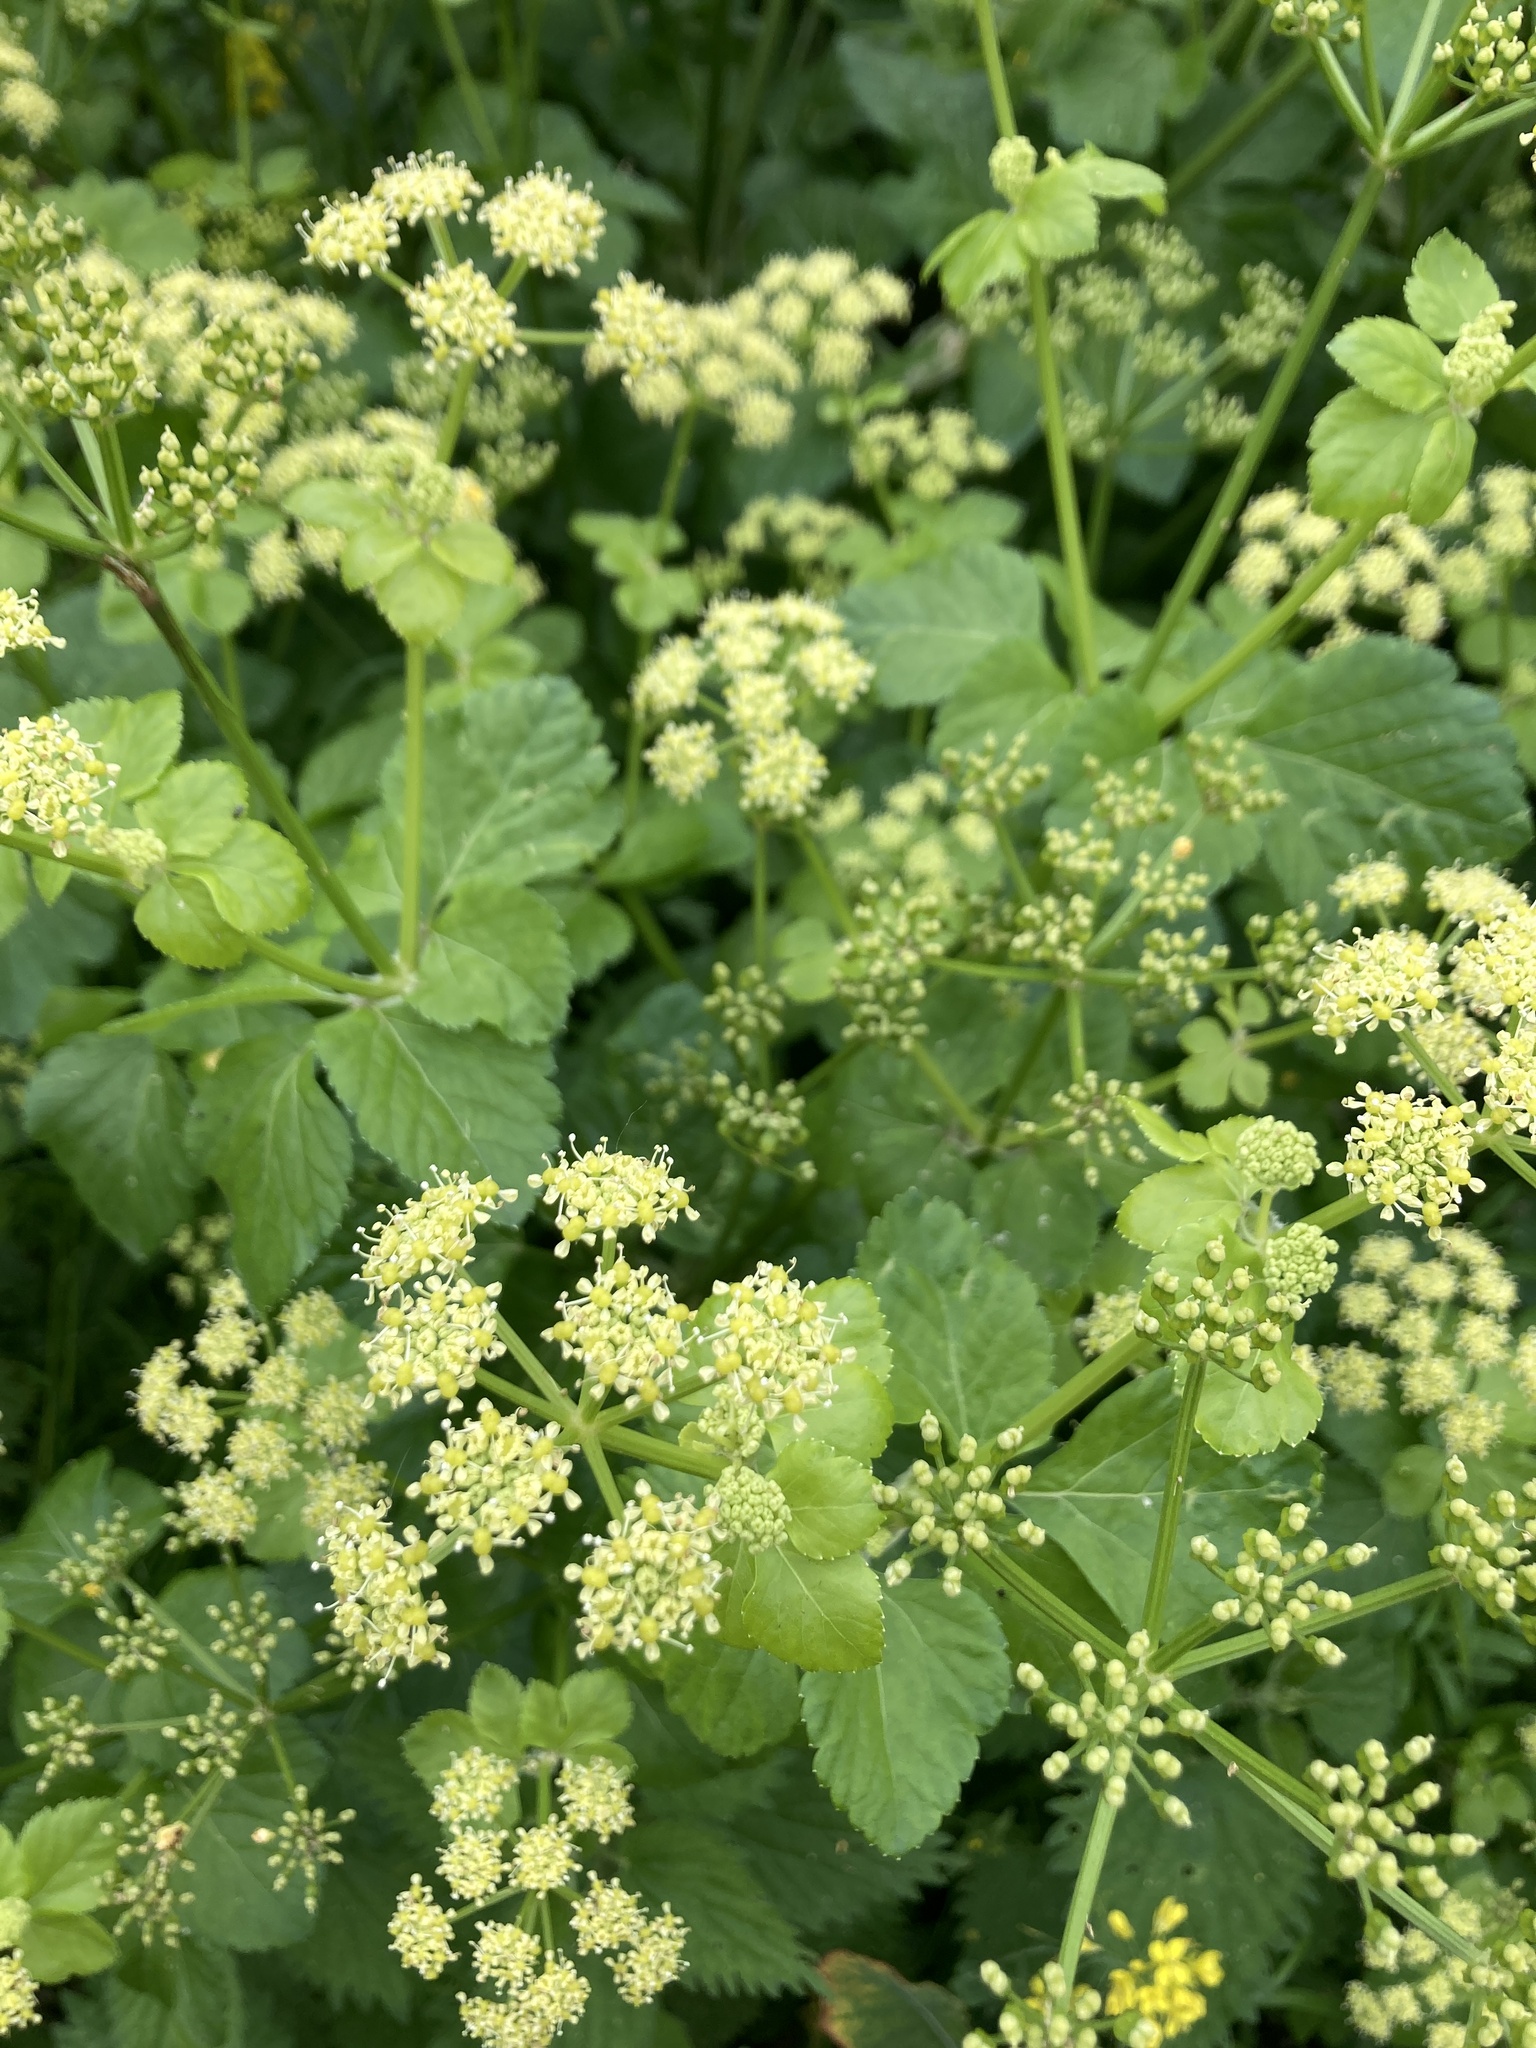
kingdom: Plantae
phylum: Tracheophyta
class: Magnoliopsida
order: Apiales
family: Apiaceae
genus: Smyrnium
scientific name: Smyrnium olusatrum
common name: Alexanders
